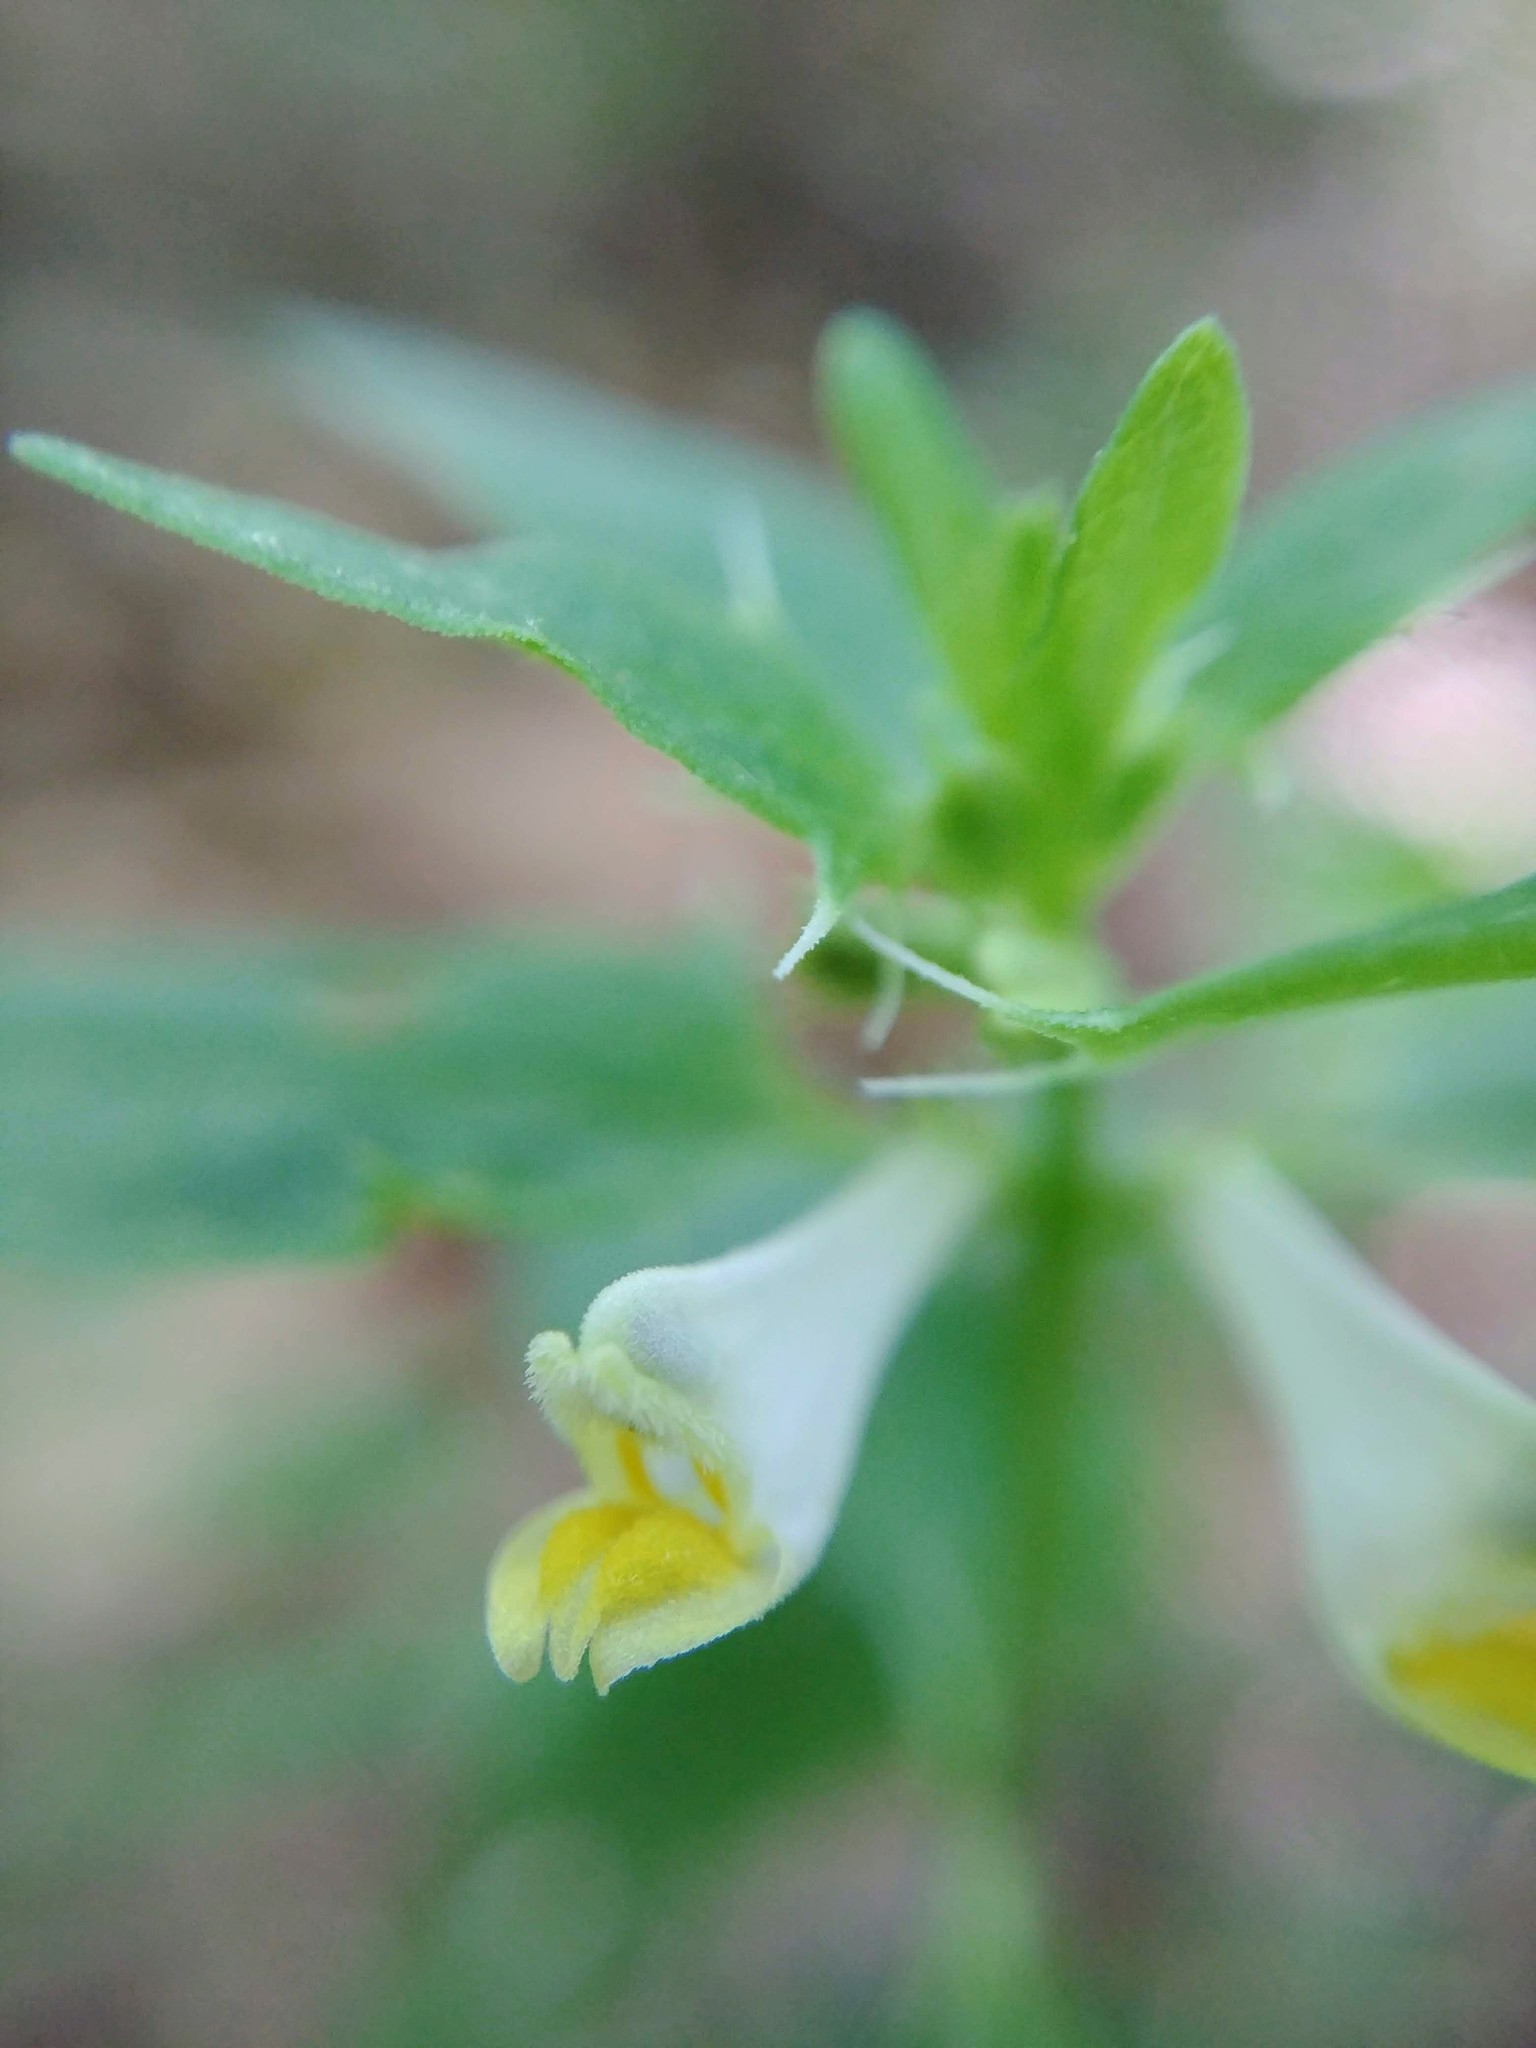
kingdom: Plantae
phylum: Tracheophyta
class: Magnoliopsida
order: Lamiales
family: Orobanchaceae
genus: Melampyrum
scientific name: Melampyrum lineare
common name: American cow-wheat
